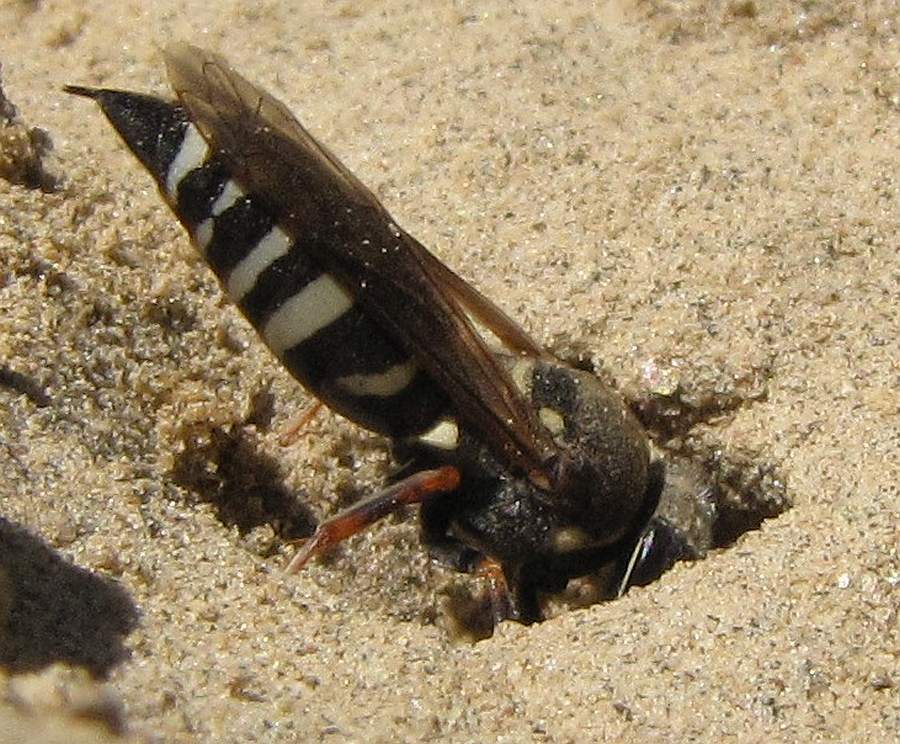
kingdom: Animalia
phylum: Arthropoda
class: Insecta
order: Hymenoptera
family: Crabronidae
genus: Bicyrtes
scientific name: Bicyrtes ventralis
